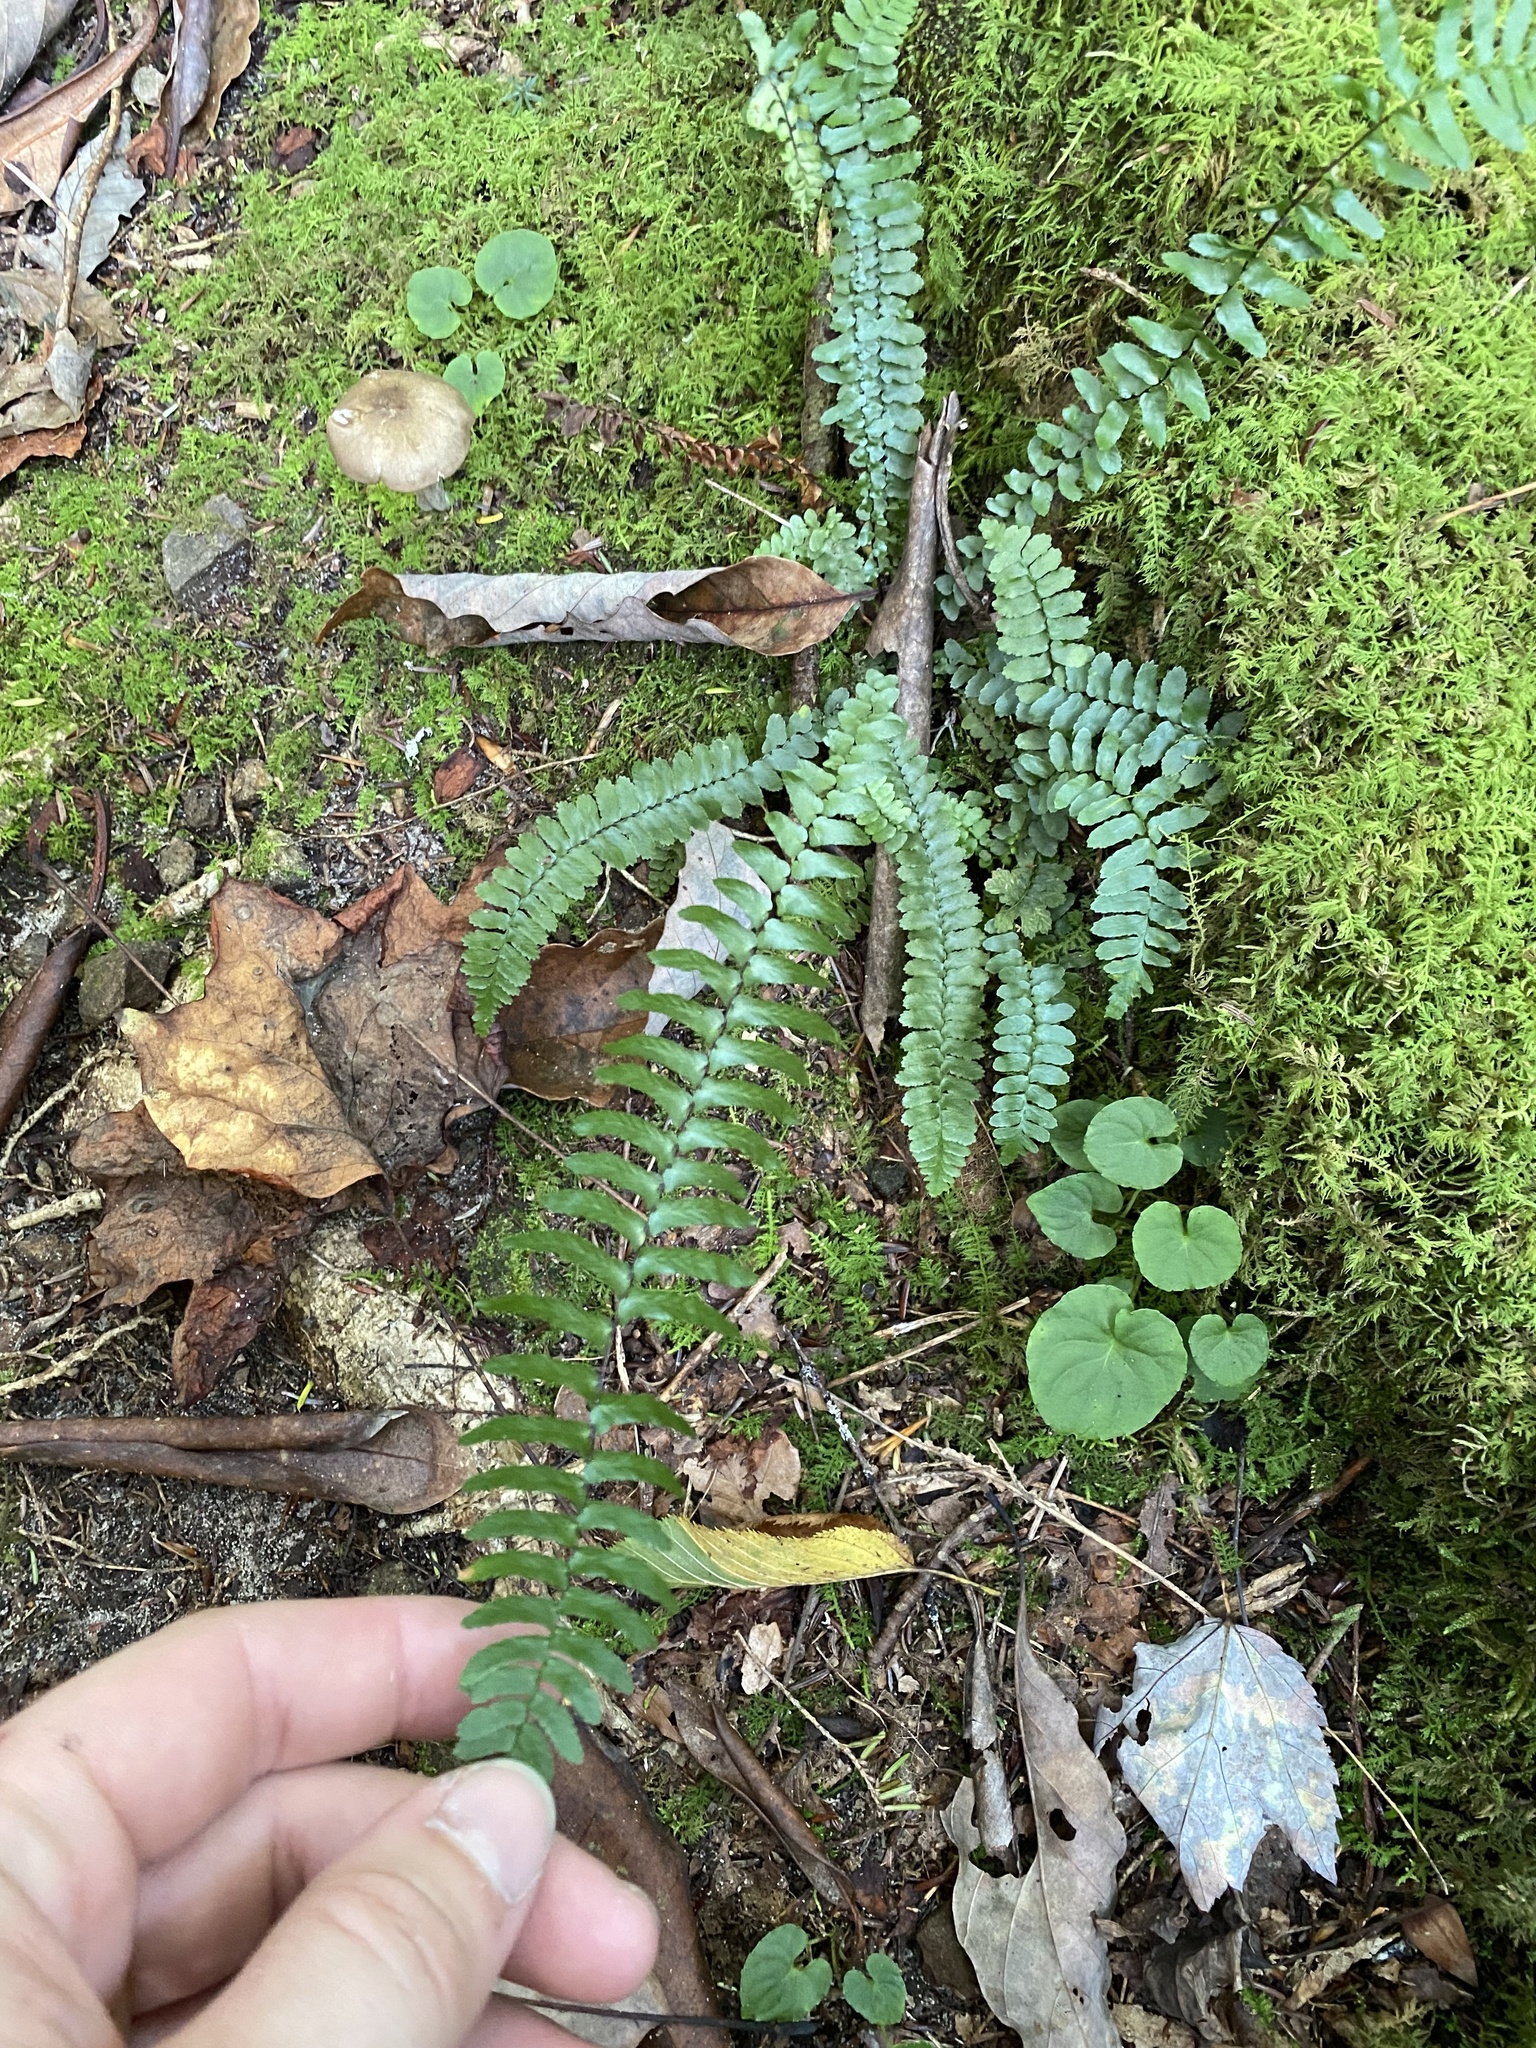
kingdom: Plantae
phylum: Tracheophyta
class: Polypodiopsida
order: Polypodiales
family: Aspleniaceae
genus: Asplenium
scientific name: Asplenium platyneuron
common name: Ebony spleenwort
